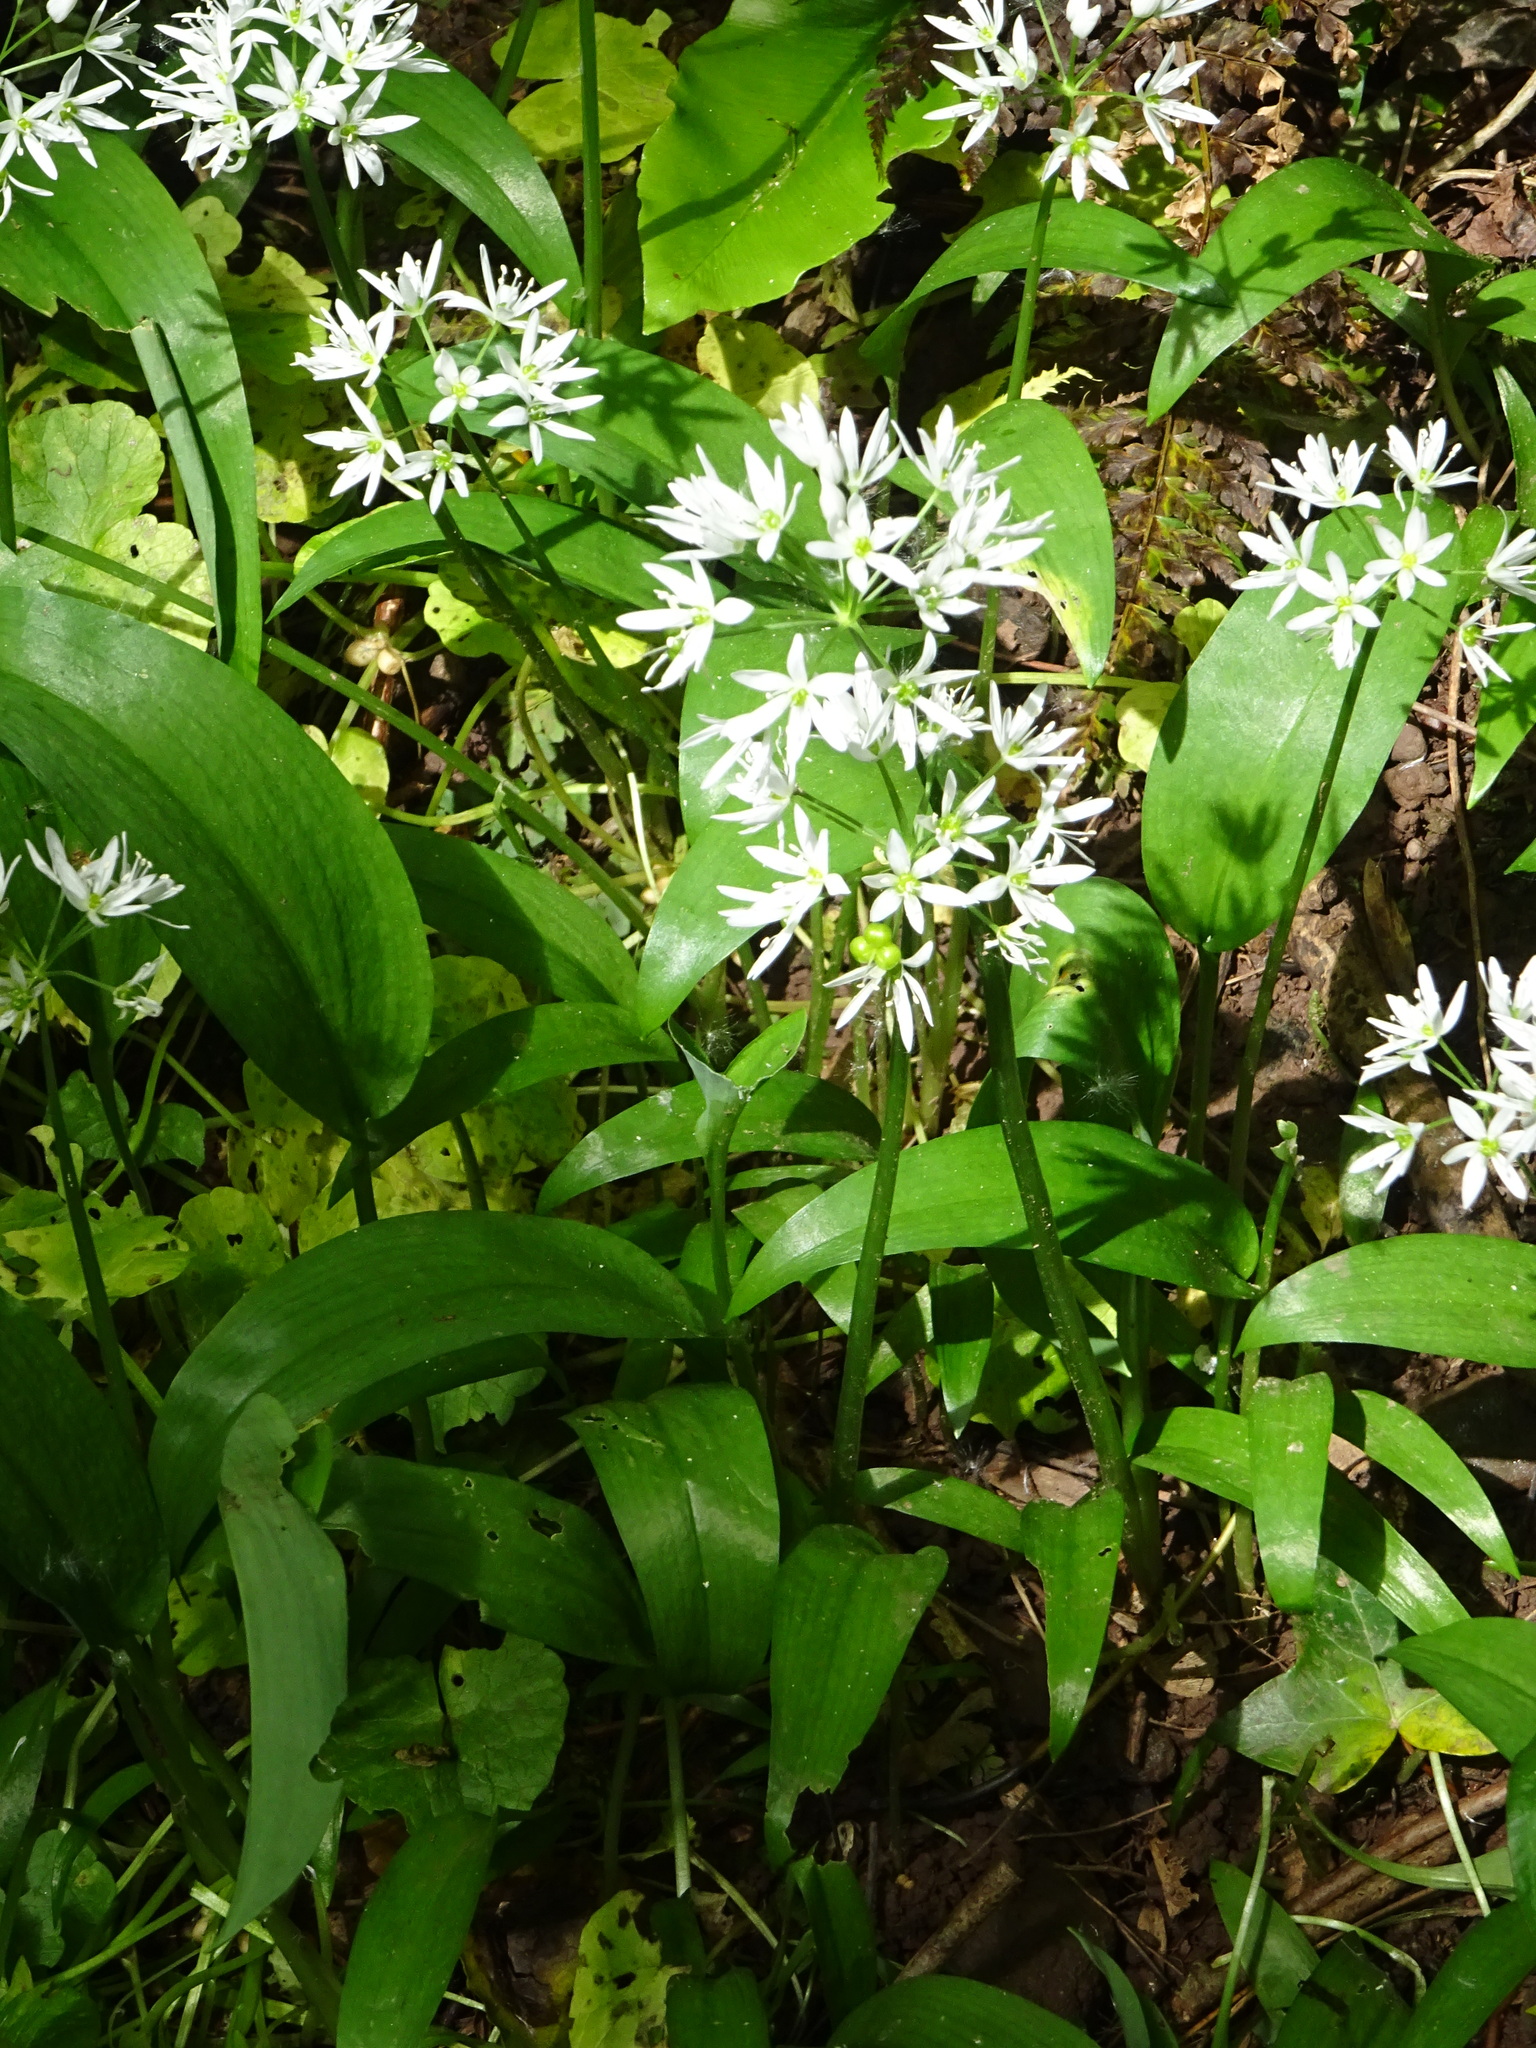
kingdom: Plantae
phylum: Tracheophyta
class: Liliopsida
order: Asparagales
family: Amaryllidaceae
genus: Allium
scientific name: Allium ursinum
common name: Ramsons
